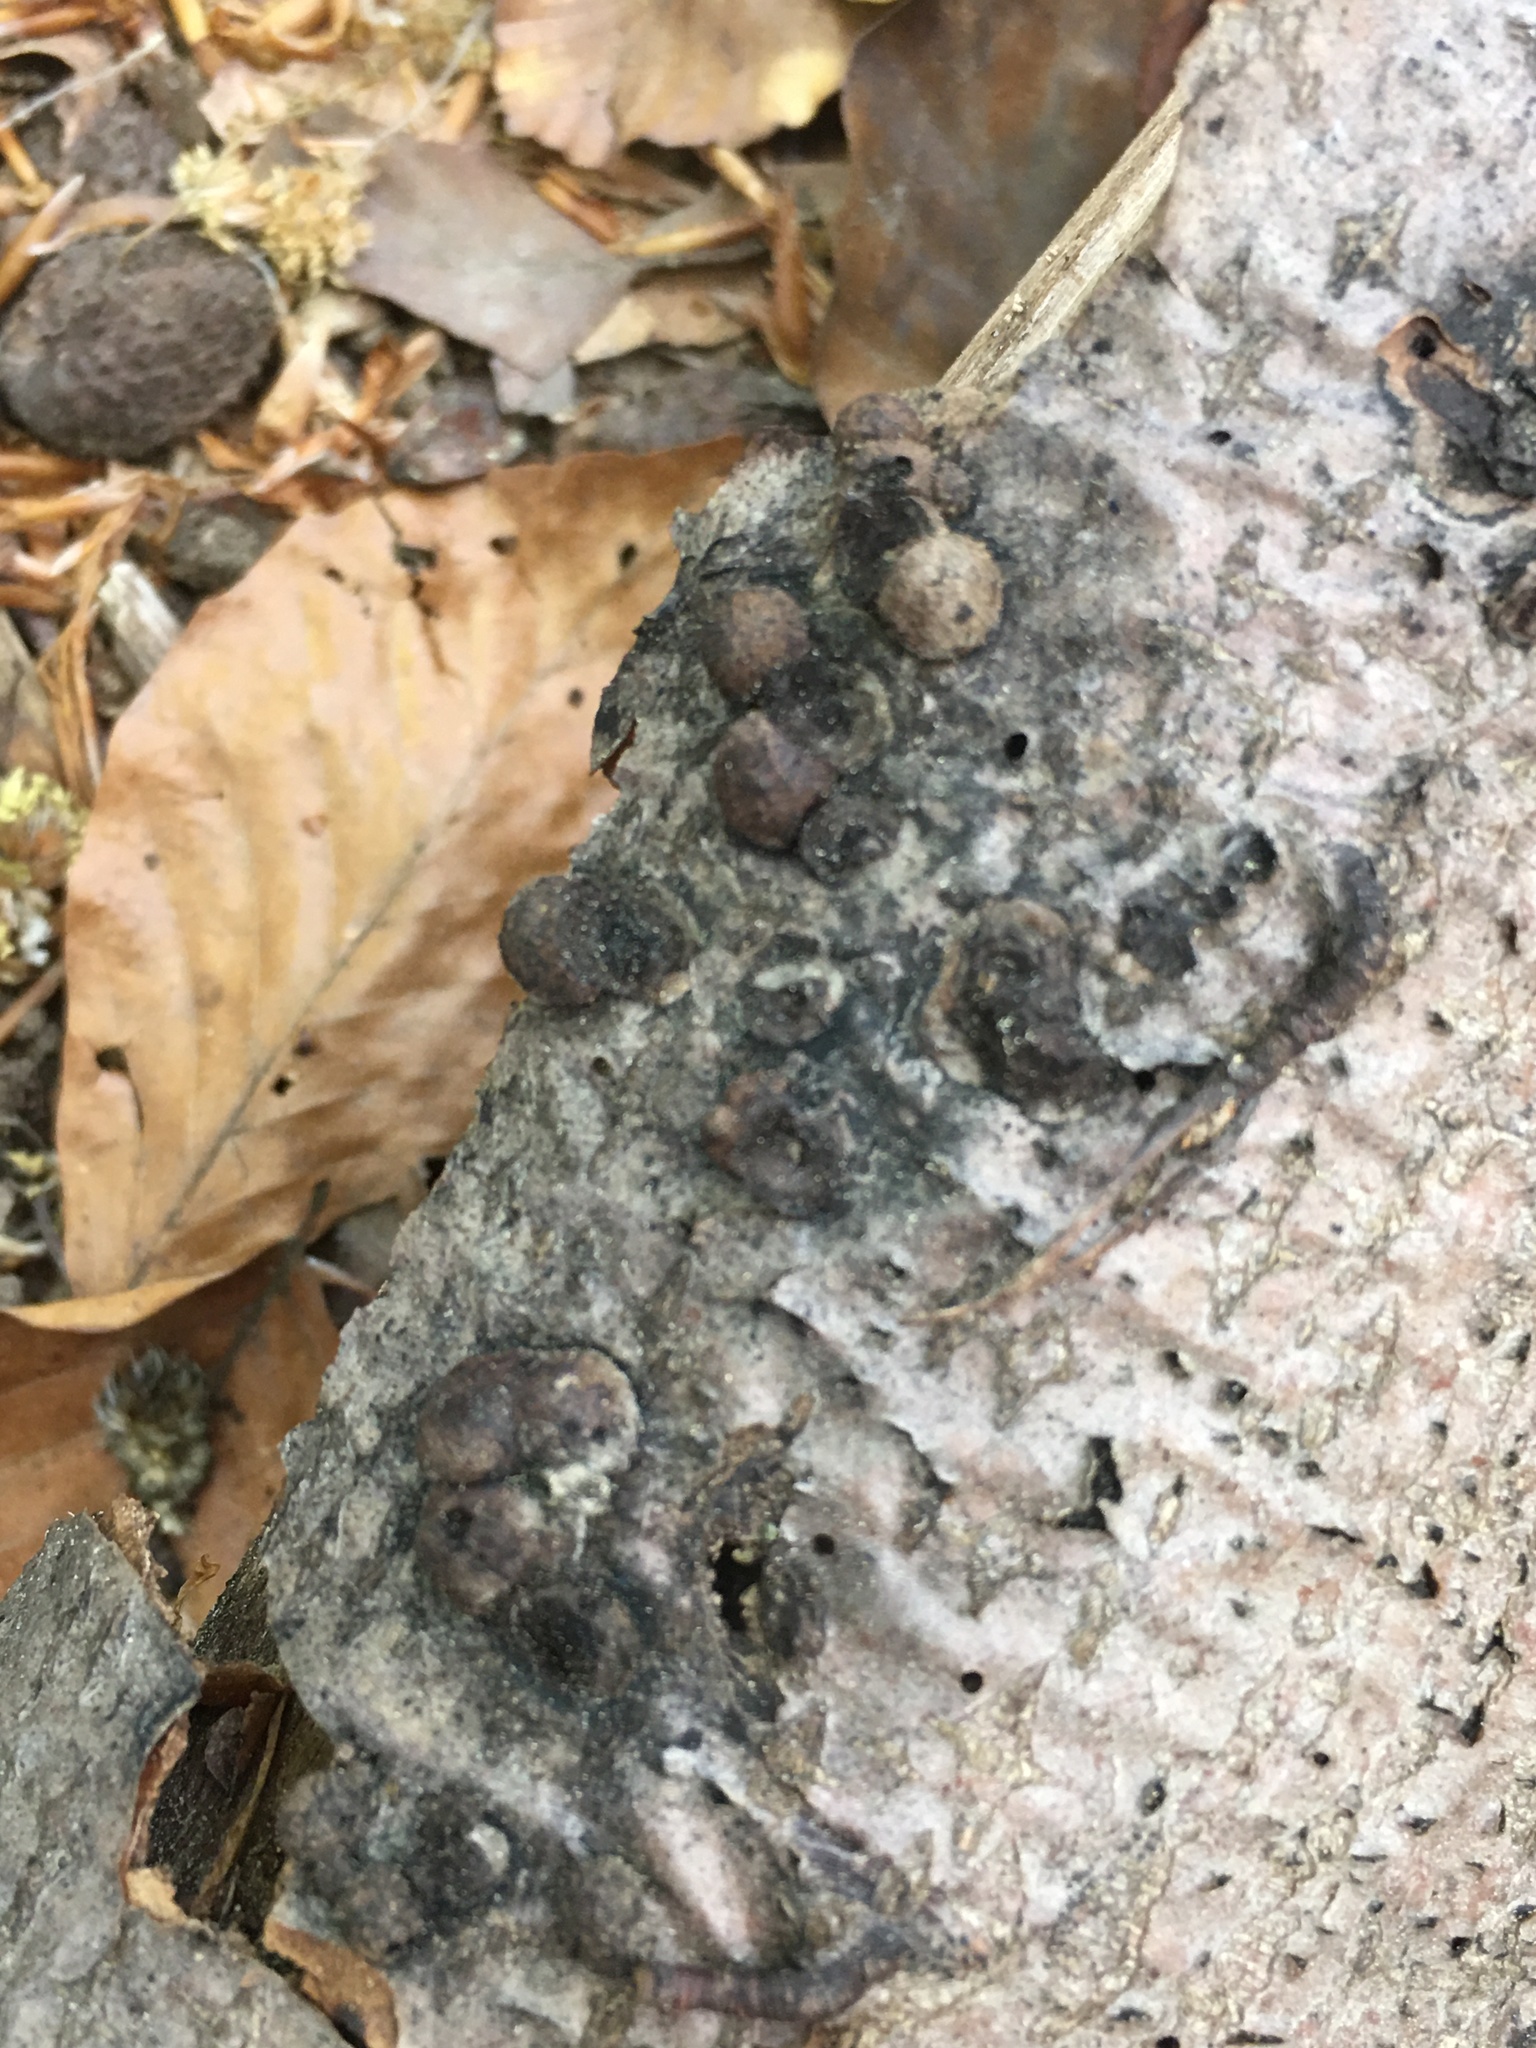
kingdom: Fungi
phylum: Ascomycota
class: Sordariomycetes
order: Xylariales
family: Hypoxylaceae
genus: Hypoxylon
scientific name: Hypoxylon fragiforme
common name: Beech woodwart
